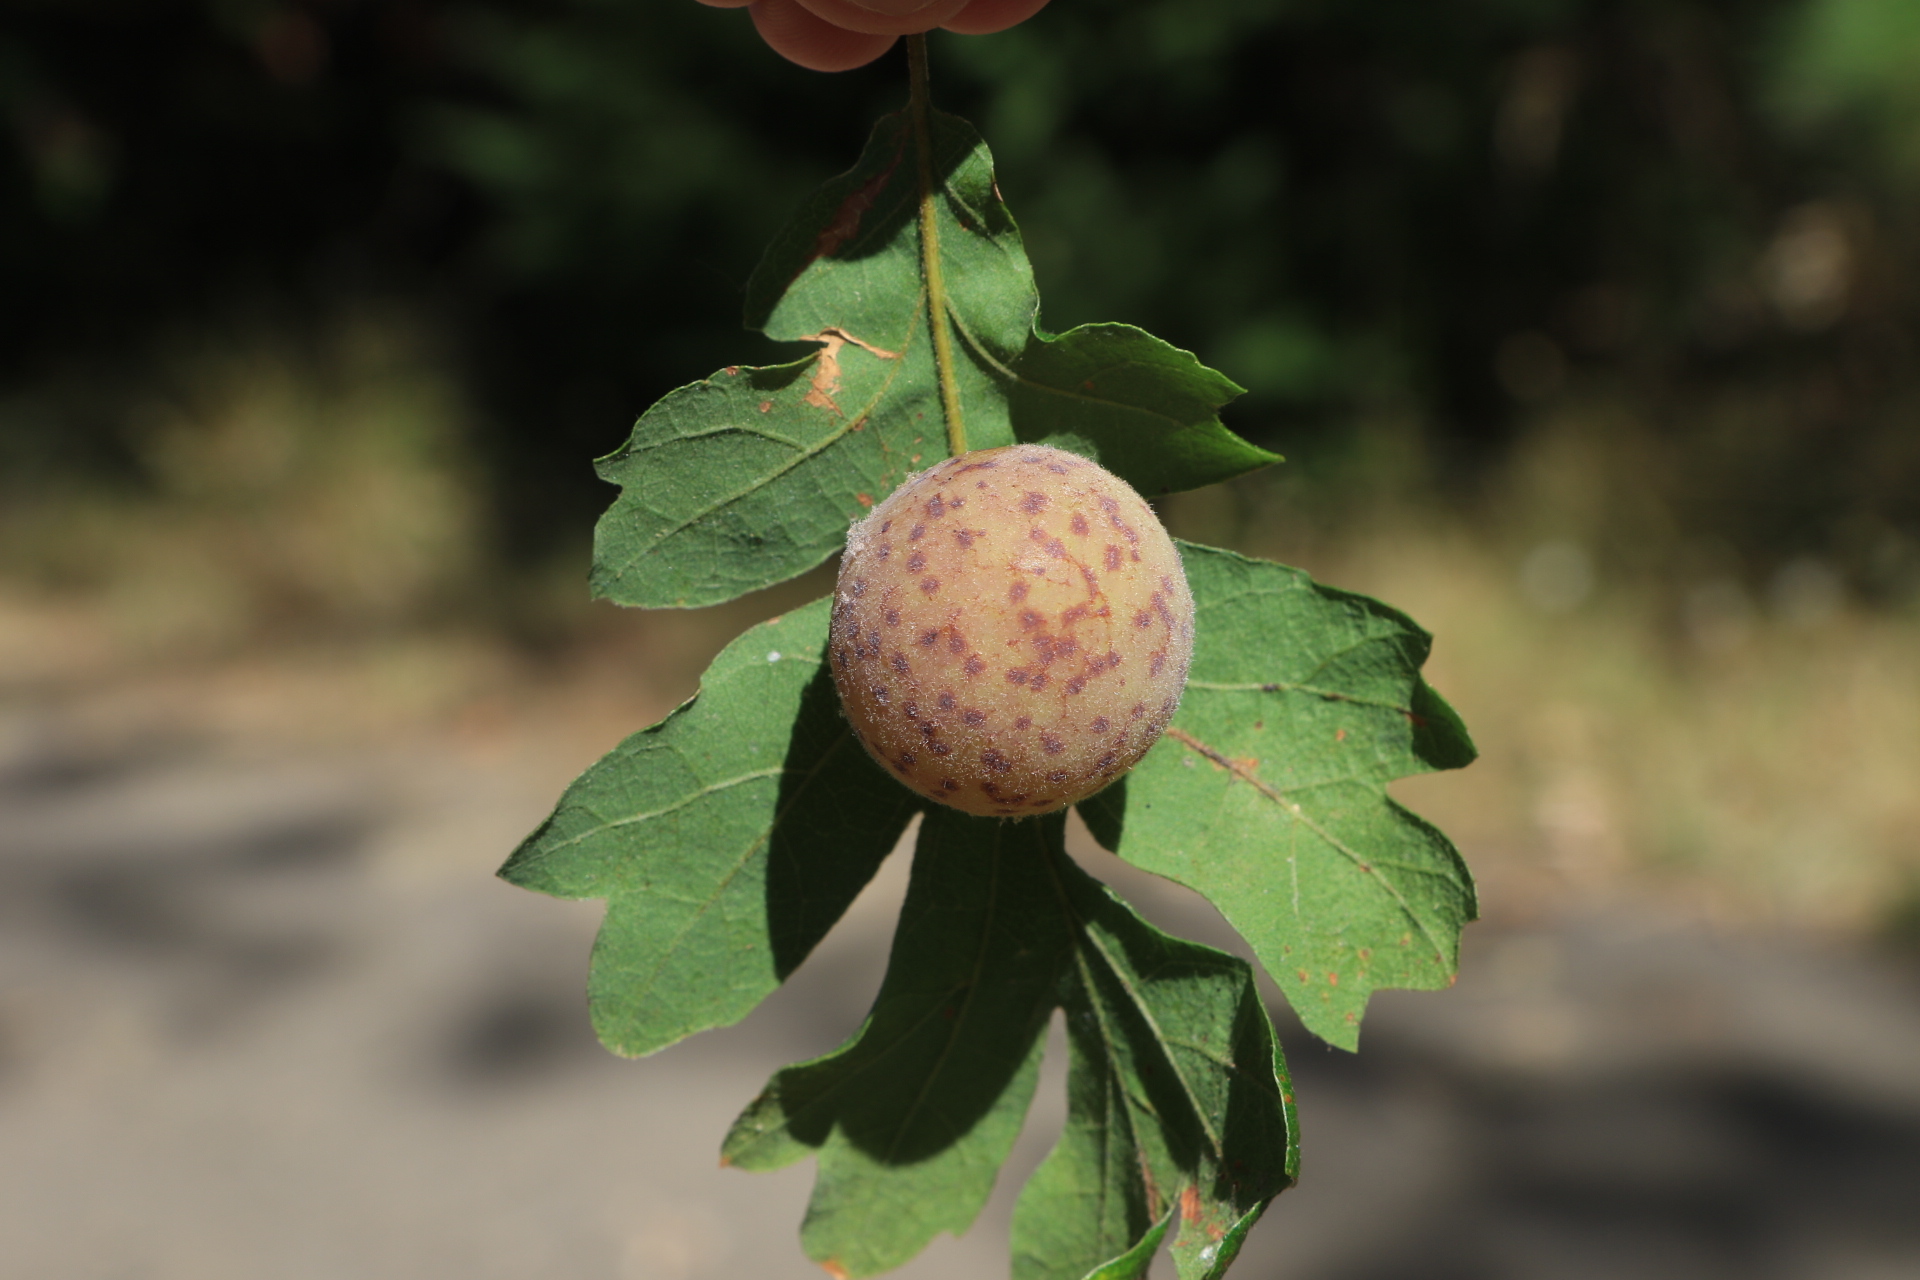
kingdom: Animalia
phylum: Arthropoda
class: Insecta
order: Hymenoptera
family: Cynipidae
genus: Cynips
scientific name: Cynips
